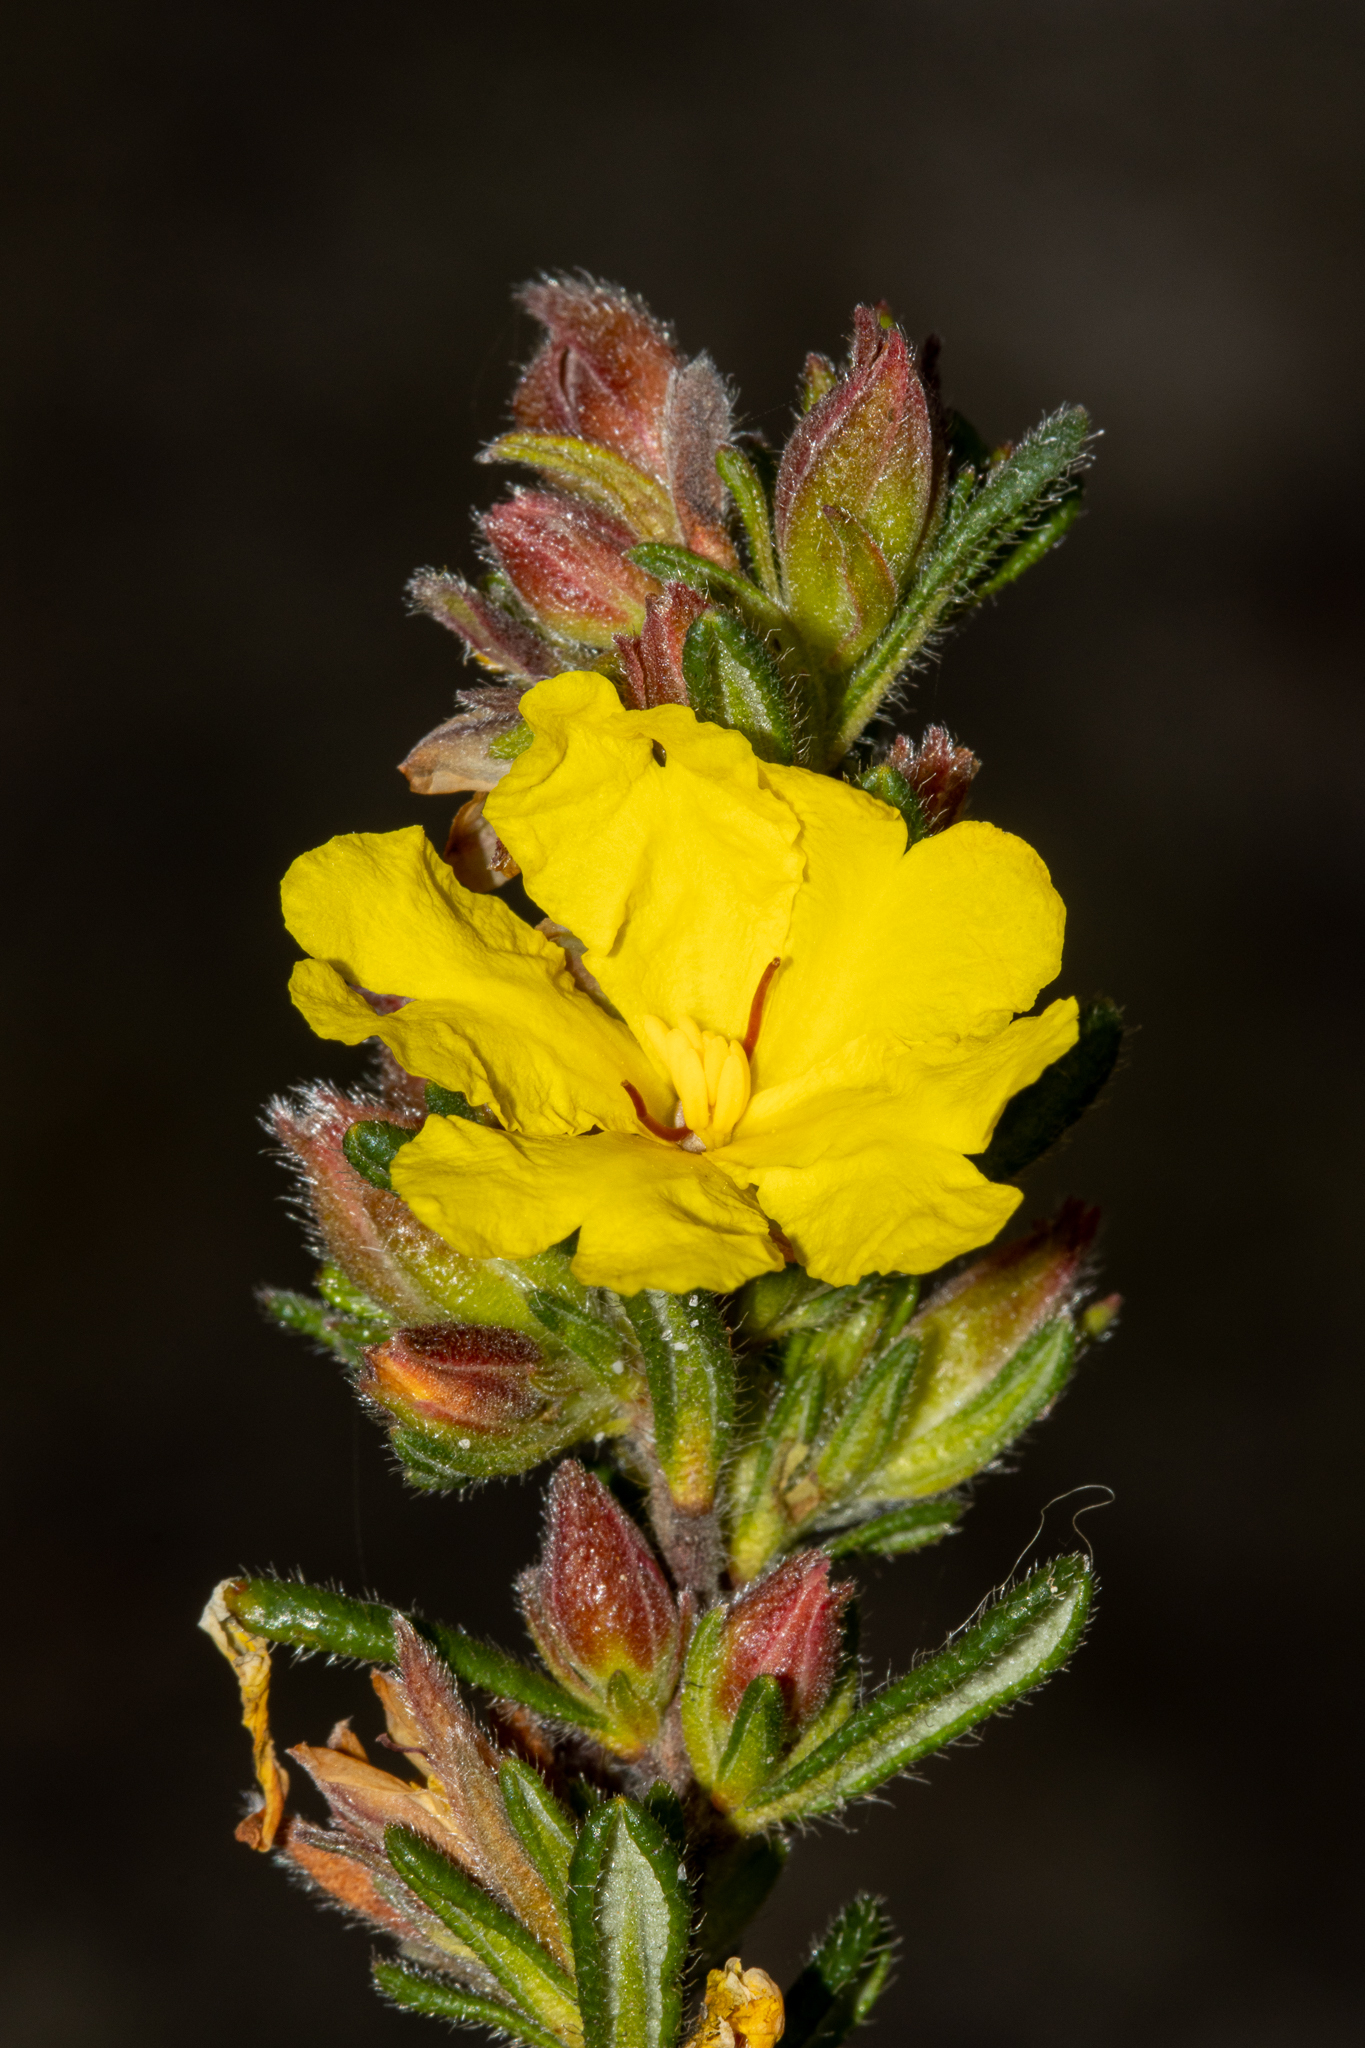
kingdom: Plantae
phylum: Tracheophyta
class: Magnoliopsida
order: Dilleniales
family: Dilleniaceae
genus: Hibbertia
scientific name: Hibbertia sericea
